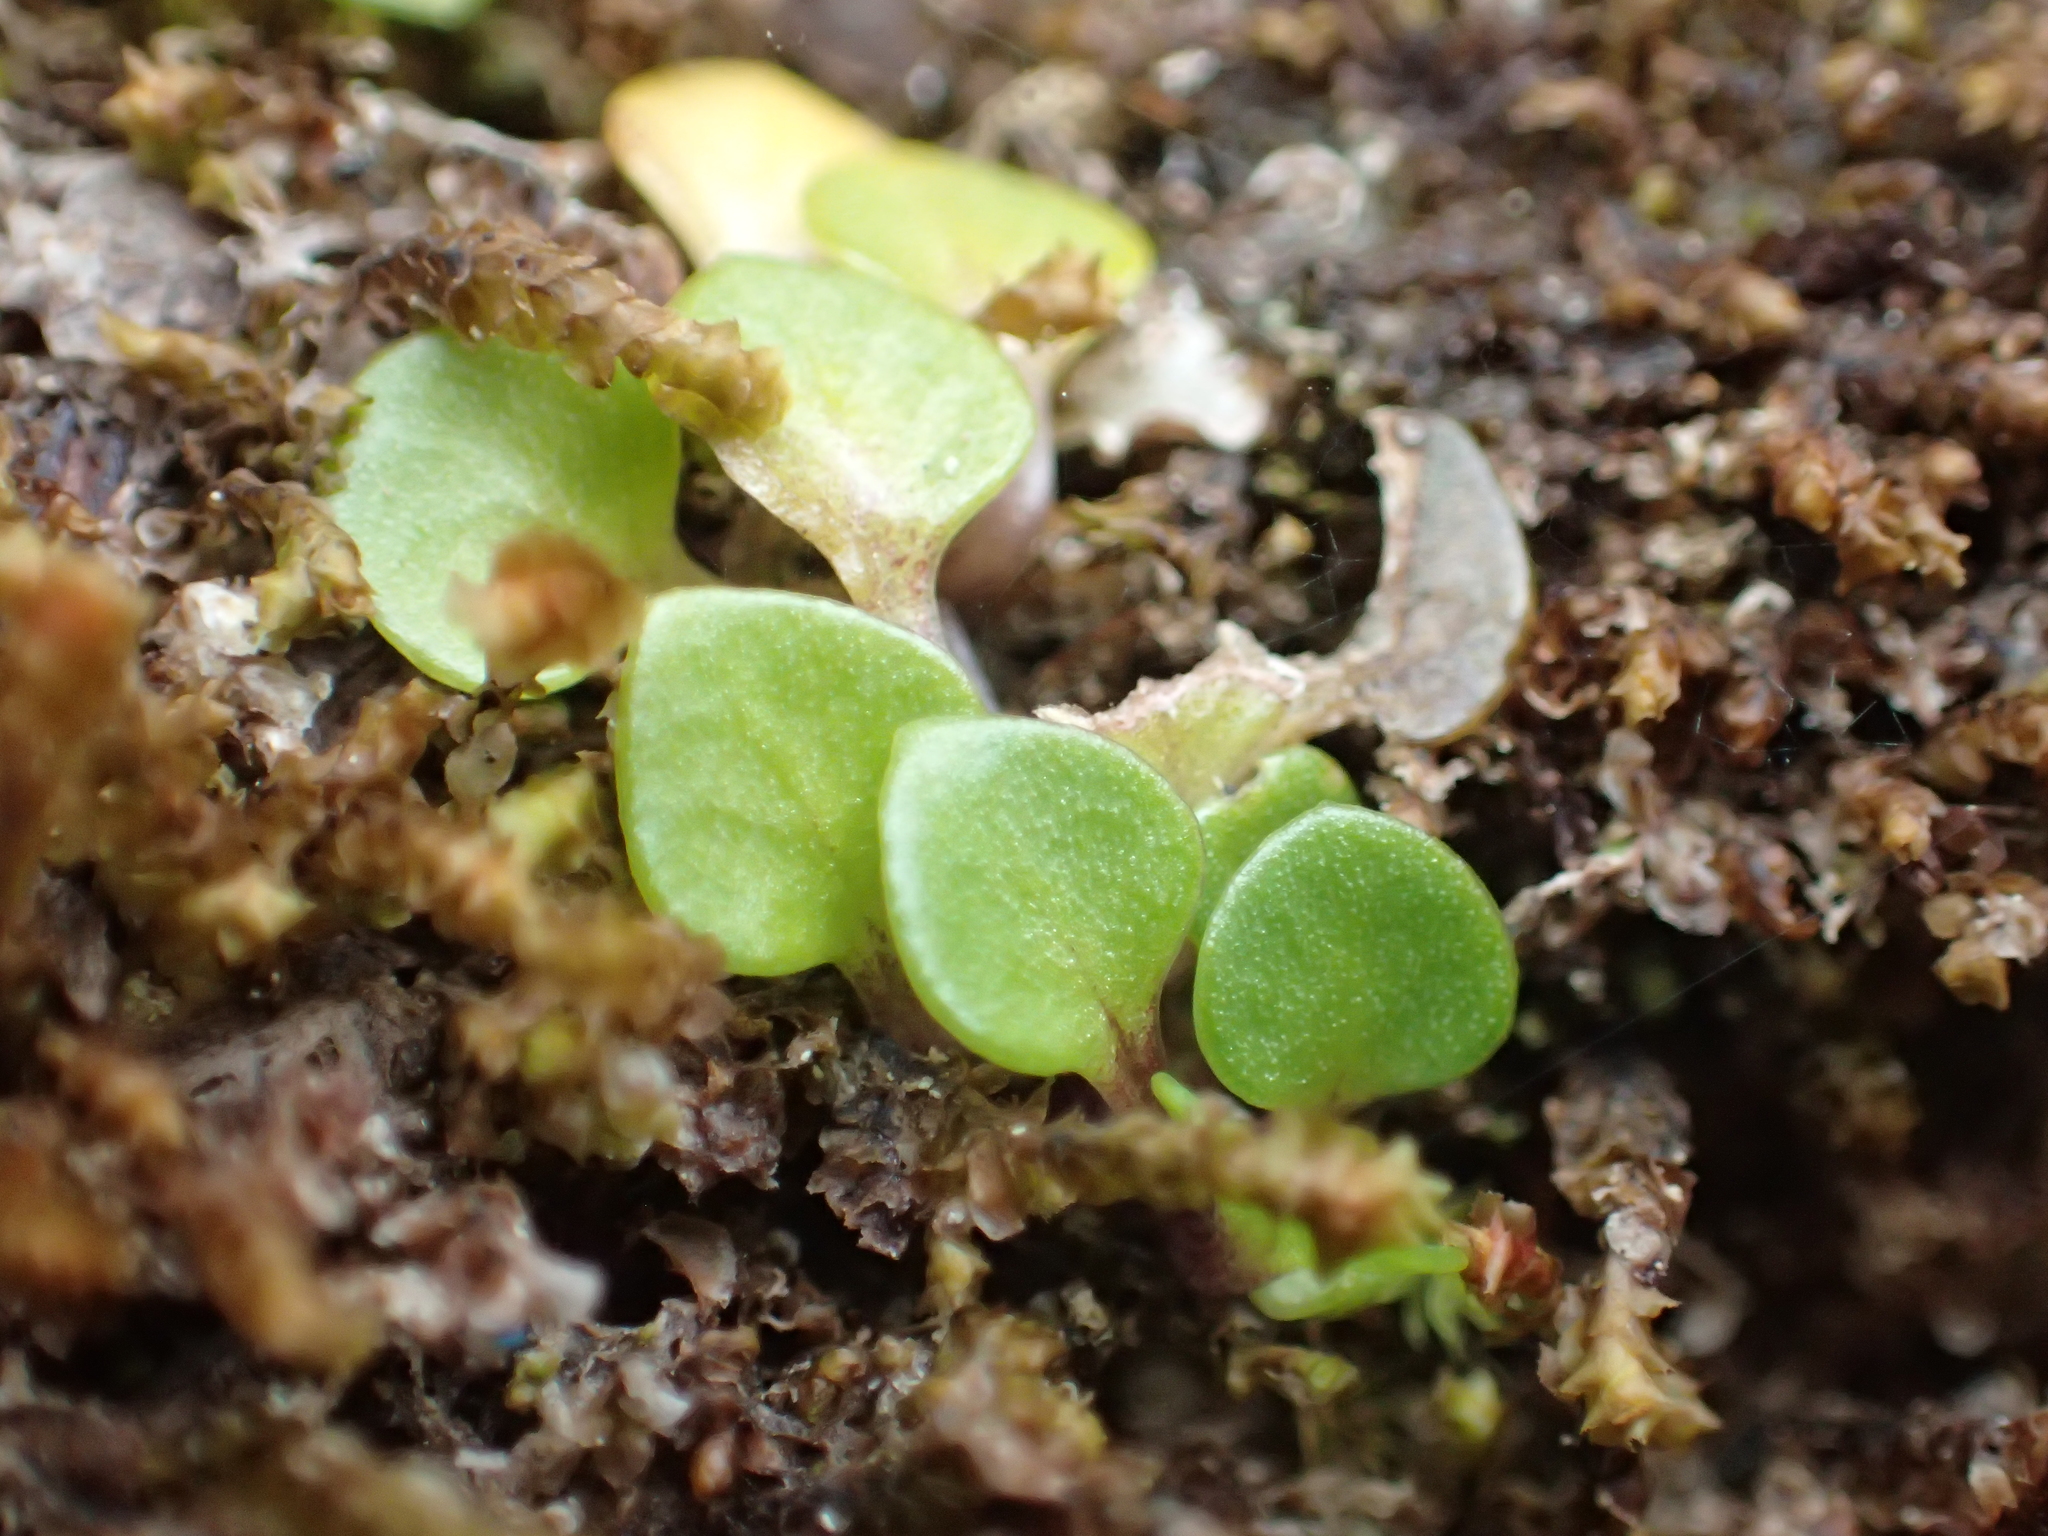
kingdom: Plantae
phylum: Tracheophyta
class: Magnoliopsida
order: Gentianales
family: Rubiaceae
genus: Nertera
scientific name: Nertera nigricarpa
